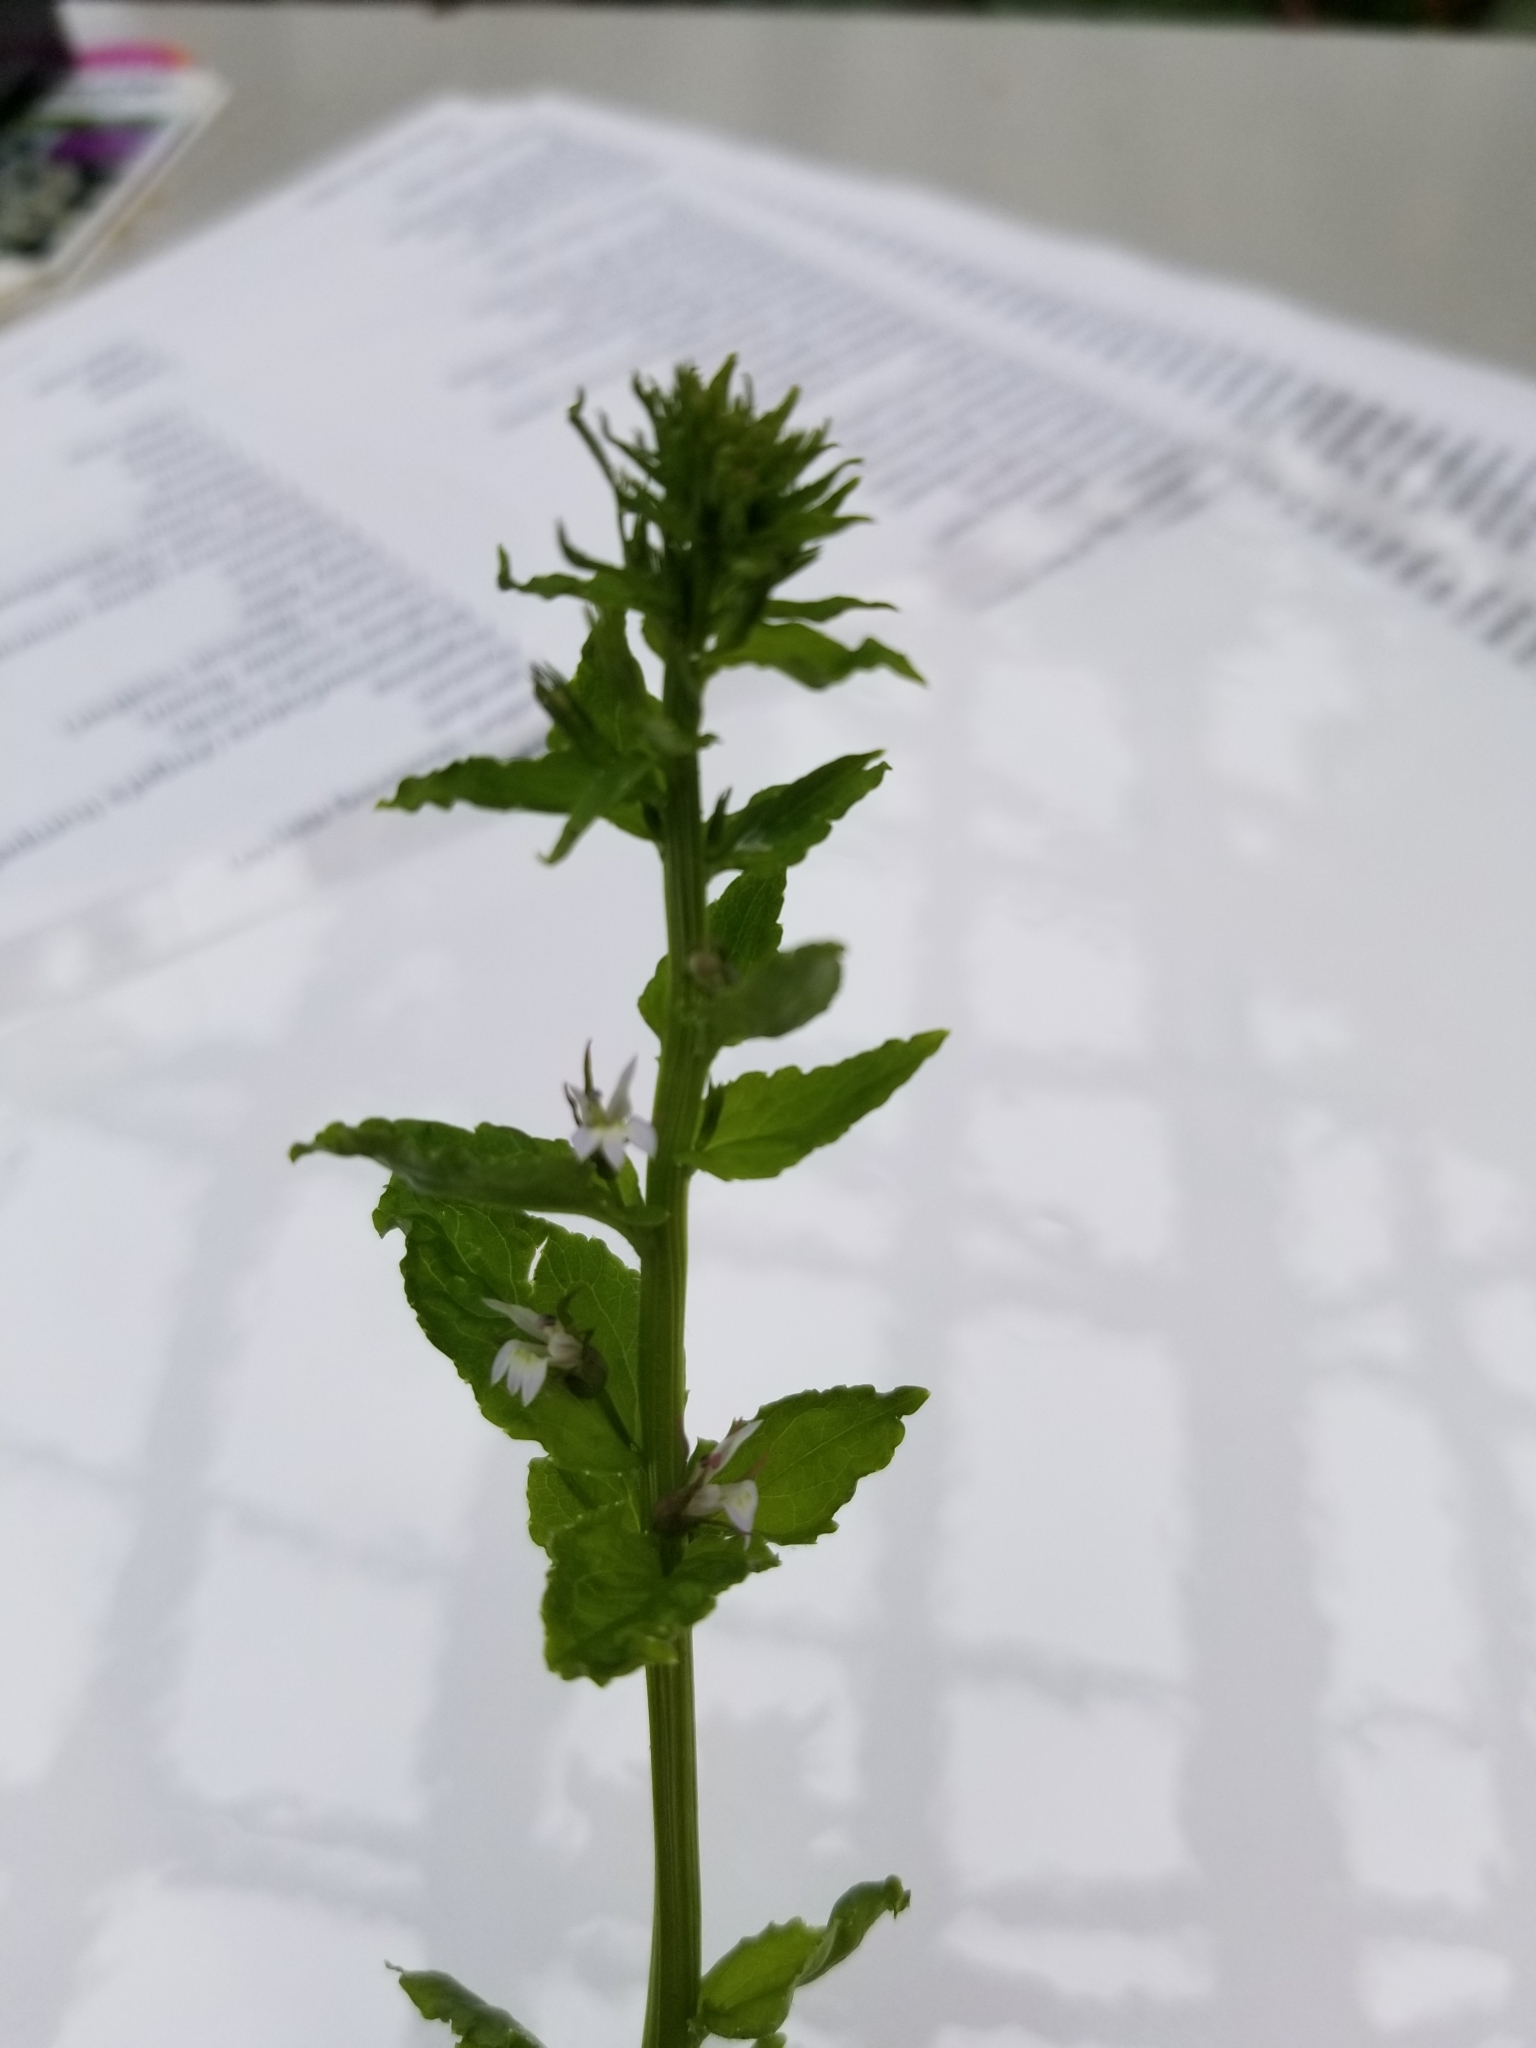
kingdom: Plantae
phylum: Tracheophyta
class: Magnoliopsida
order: Asterales
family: Campanulaceae
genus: Lobelia
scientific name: Lobelia inflata
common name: Indian tobacco
